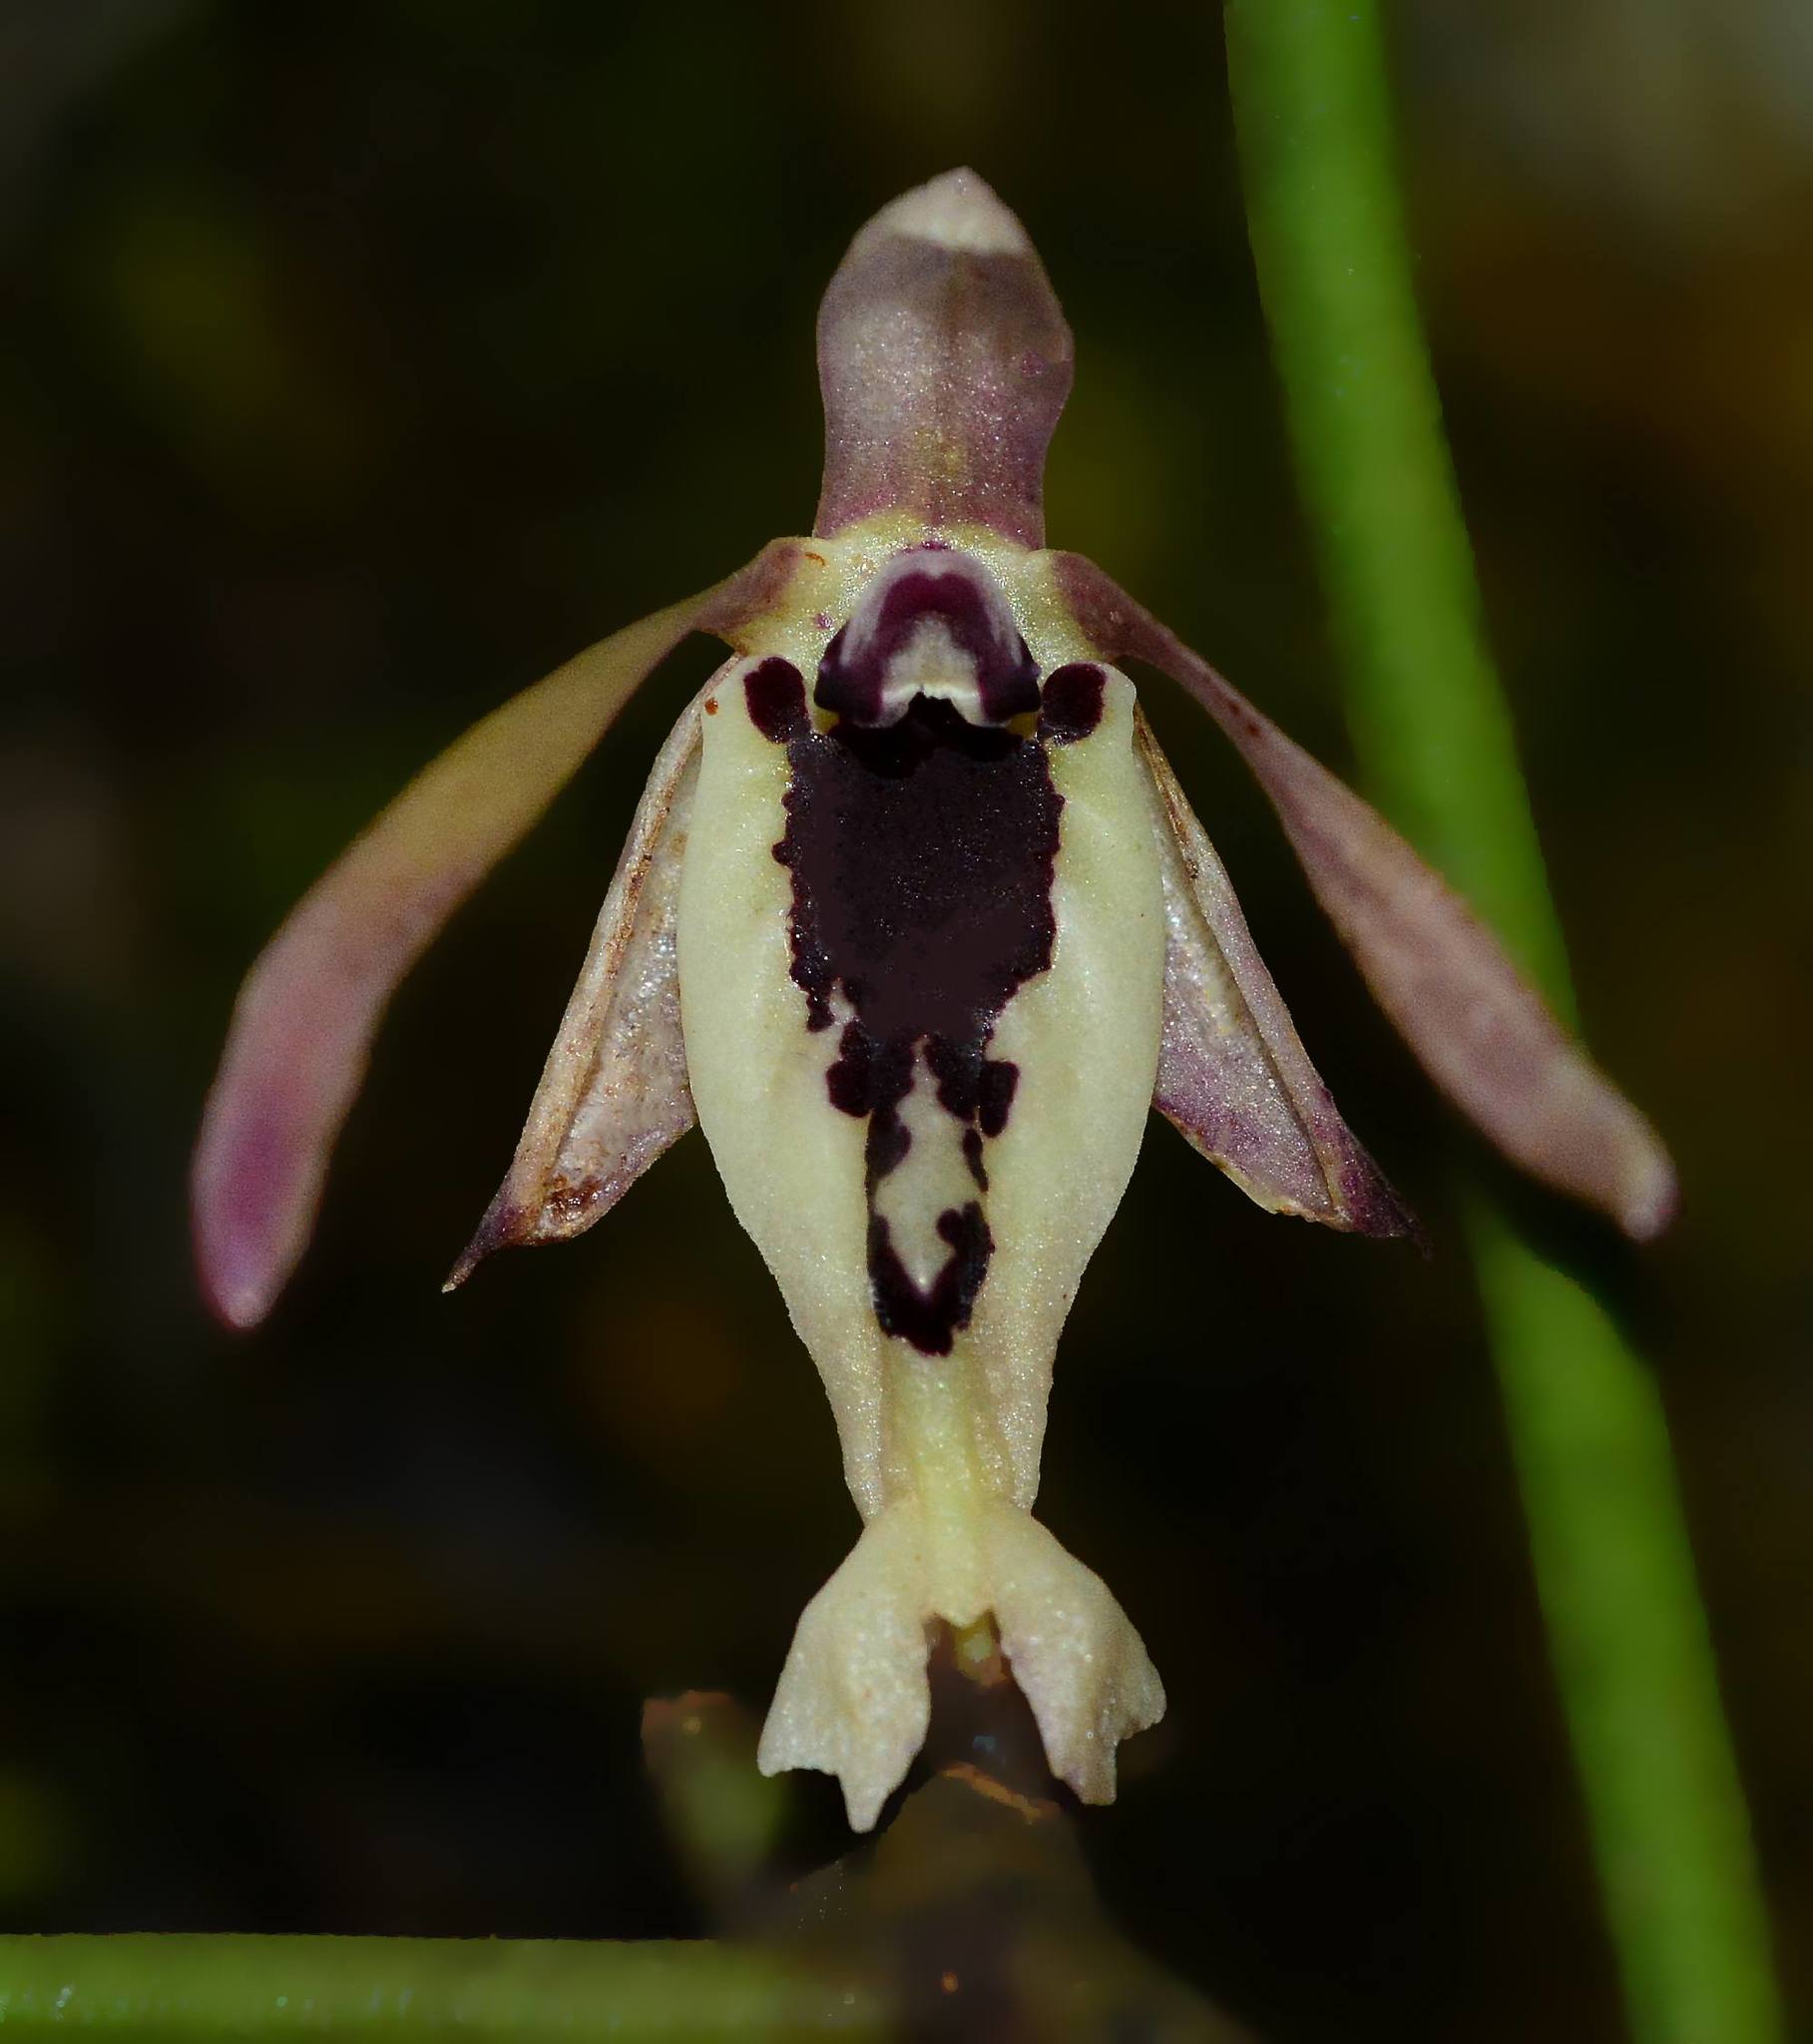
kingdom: Plantae
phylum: Tracheophyta
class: Liliopsida
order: Asparagales
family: Orchidaceae
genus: Luisia
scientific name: Luisia tenuifolia
